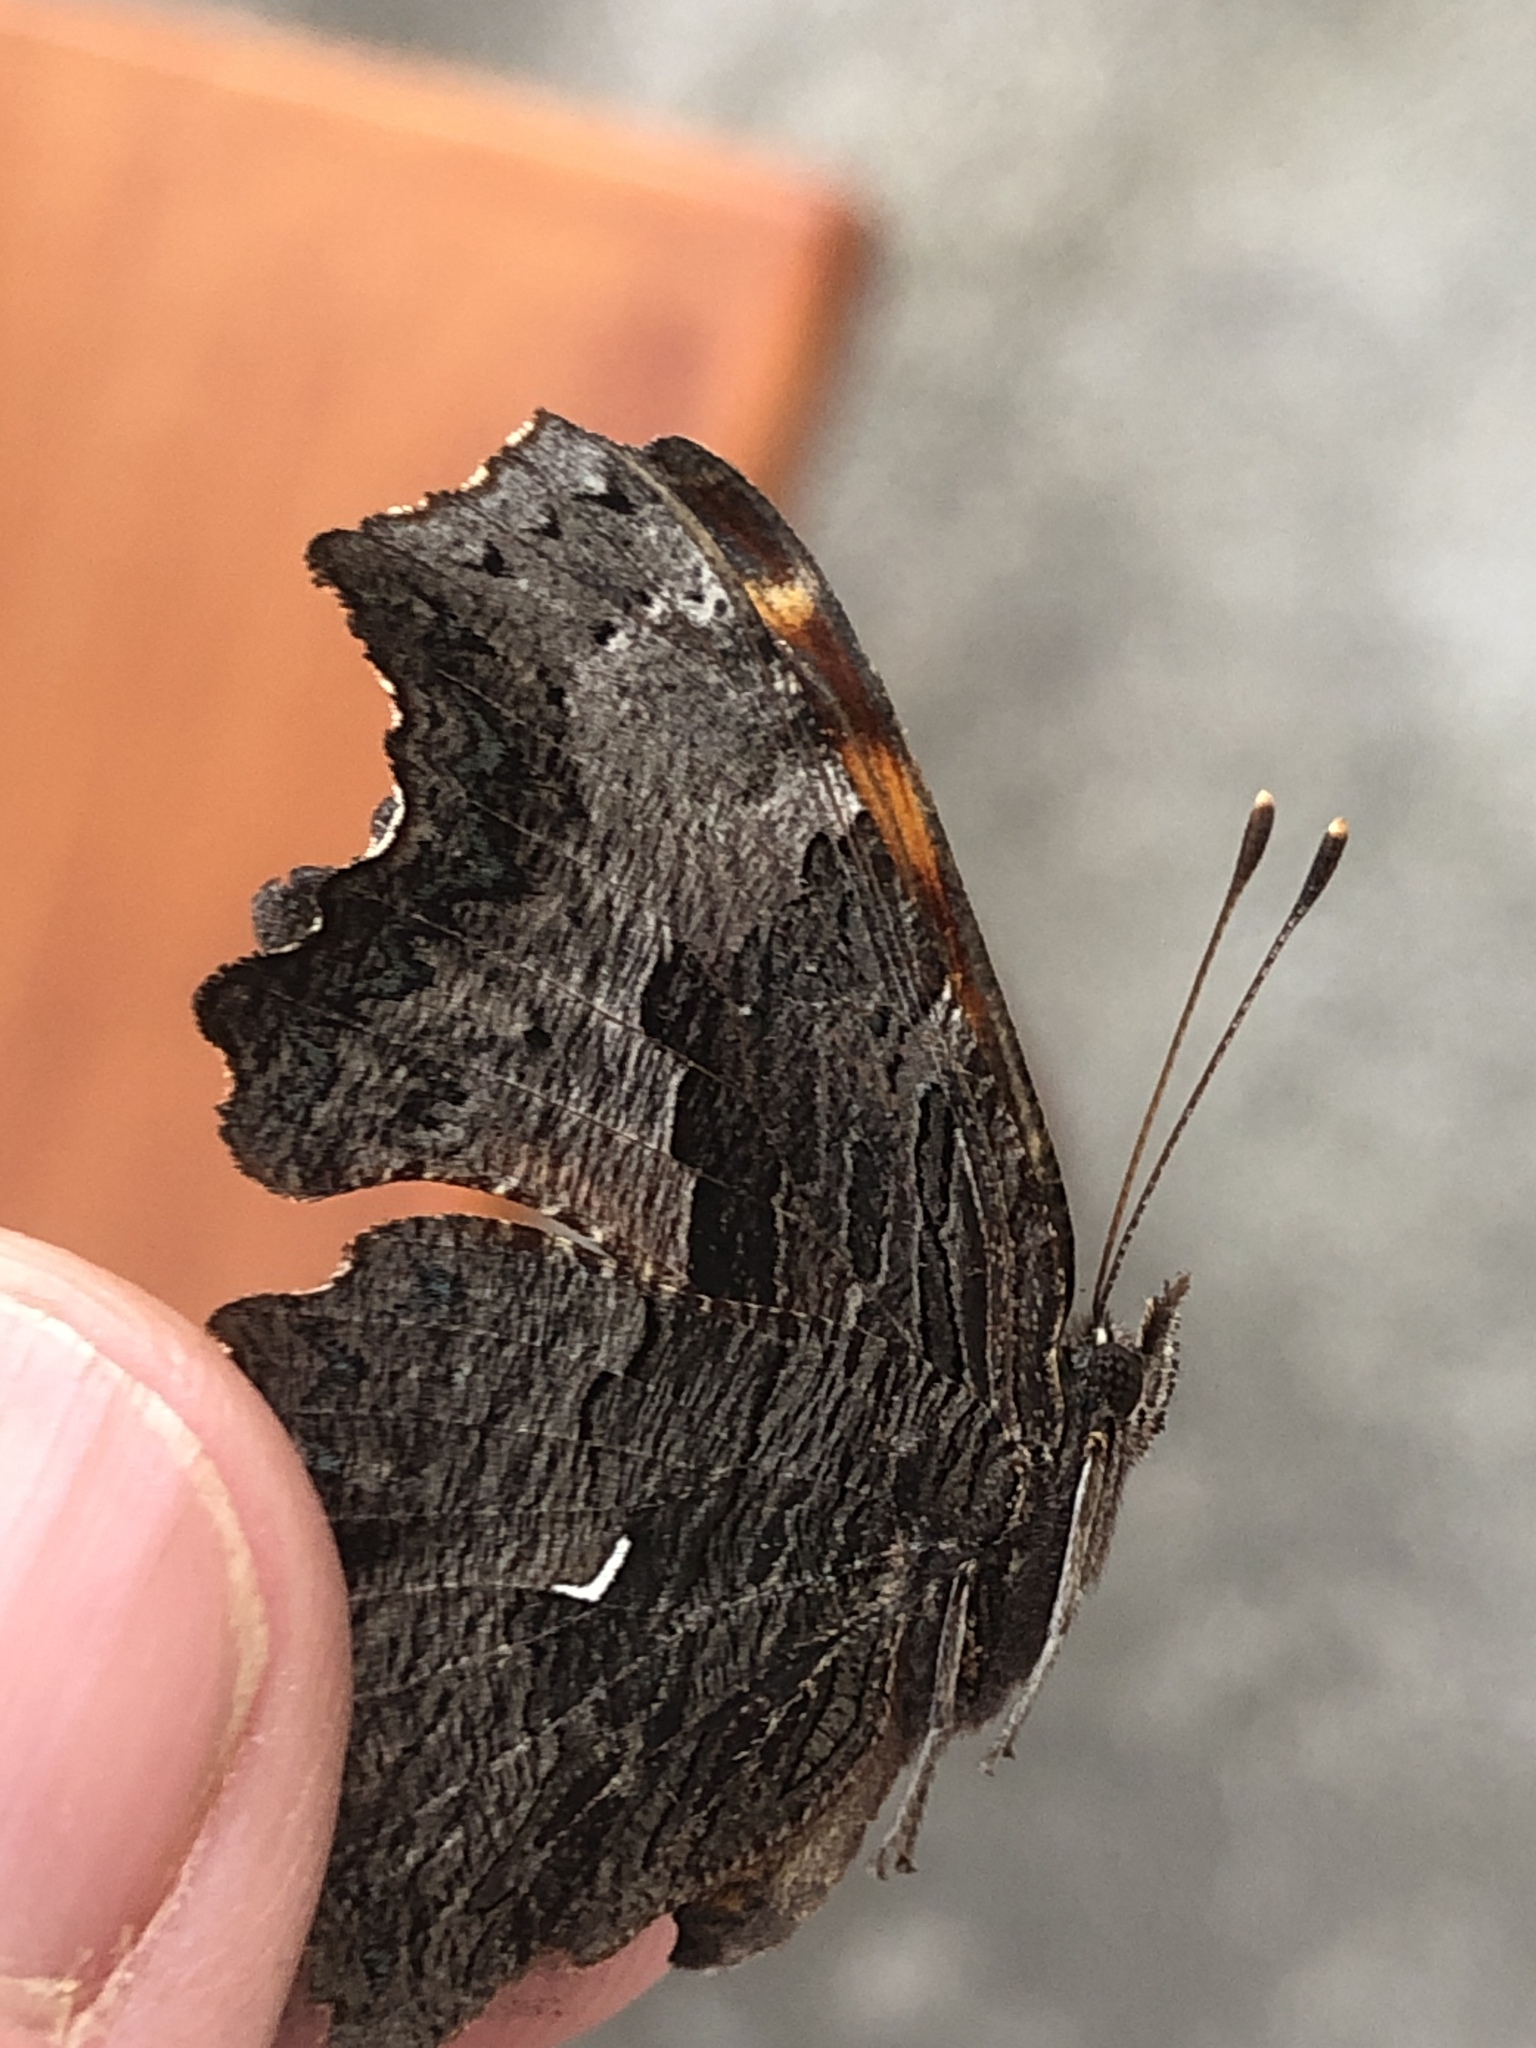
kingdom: Animalia
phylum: Arthropoda
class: Insecta
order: Lepidoptera
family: Nymphalidae
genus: Polygonia
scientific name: Polygonia progne
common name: Gray comma
